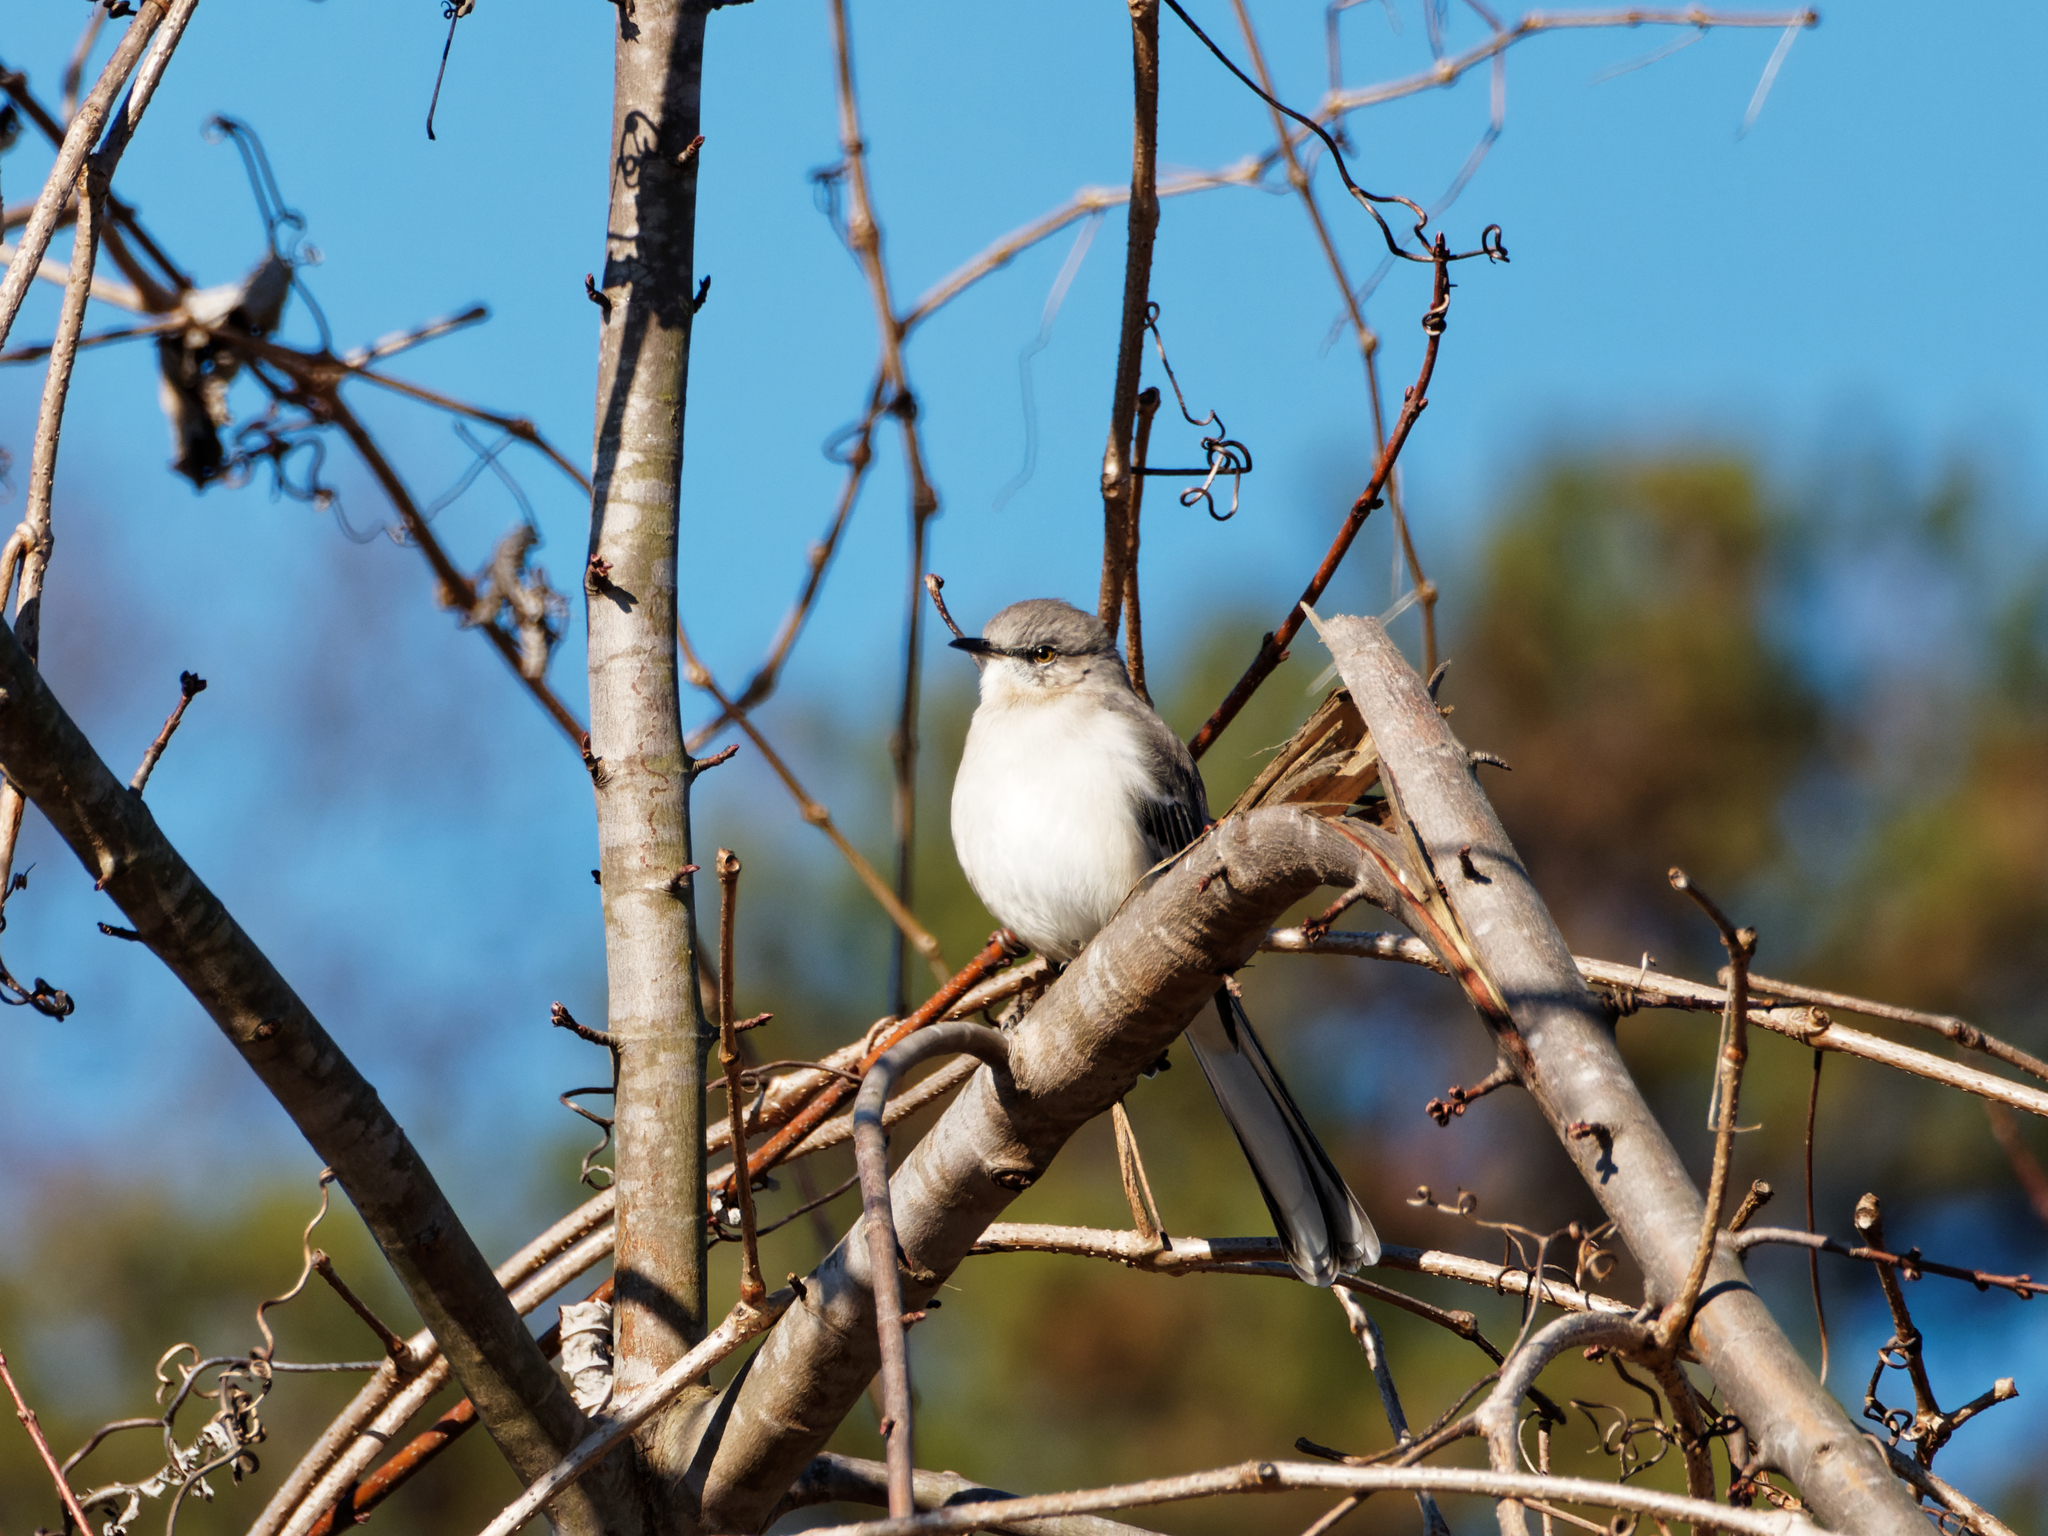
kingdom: Animalia
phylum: Chordata
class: Aves
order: Passeriformes
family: Mimidae
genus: Mimus
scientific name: Mimus polyglottos
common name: Northern mockingbird
